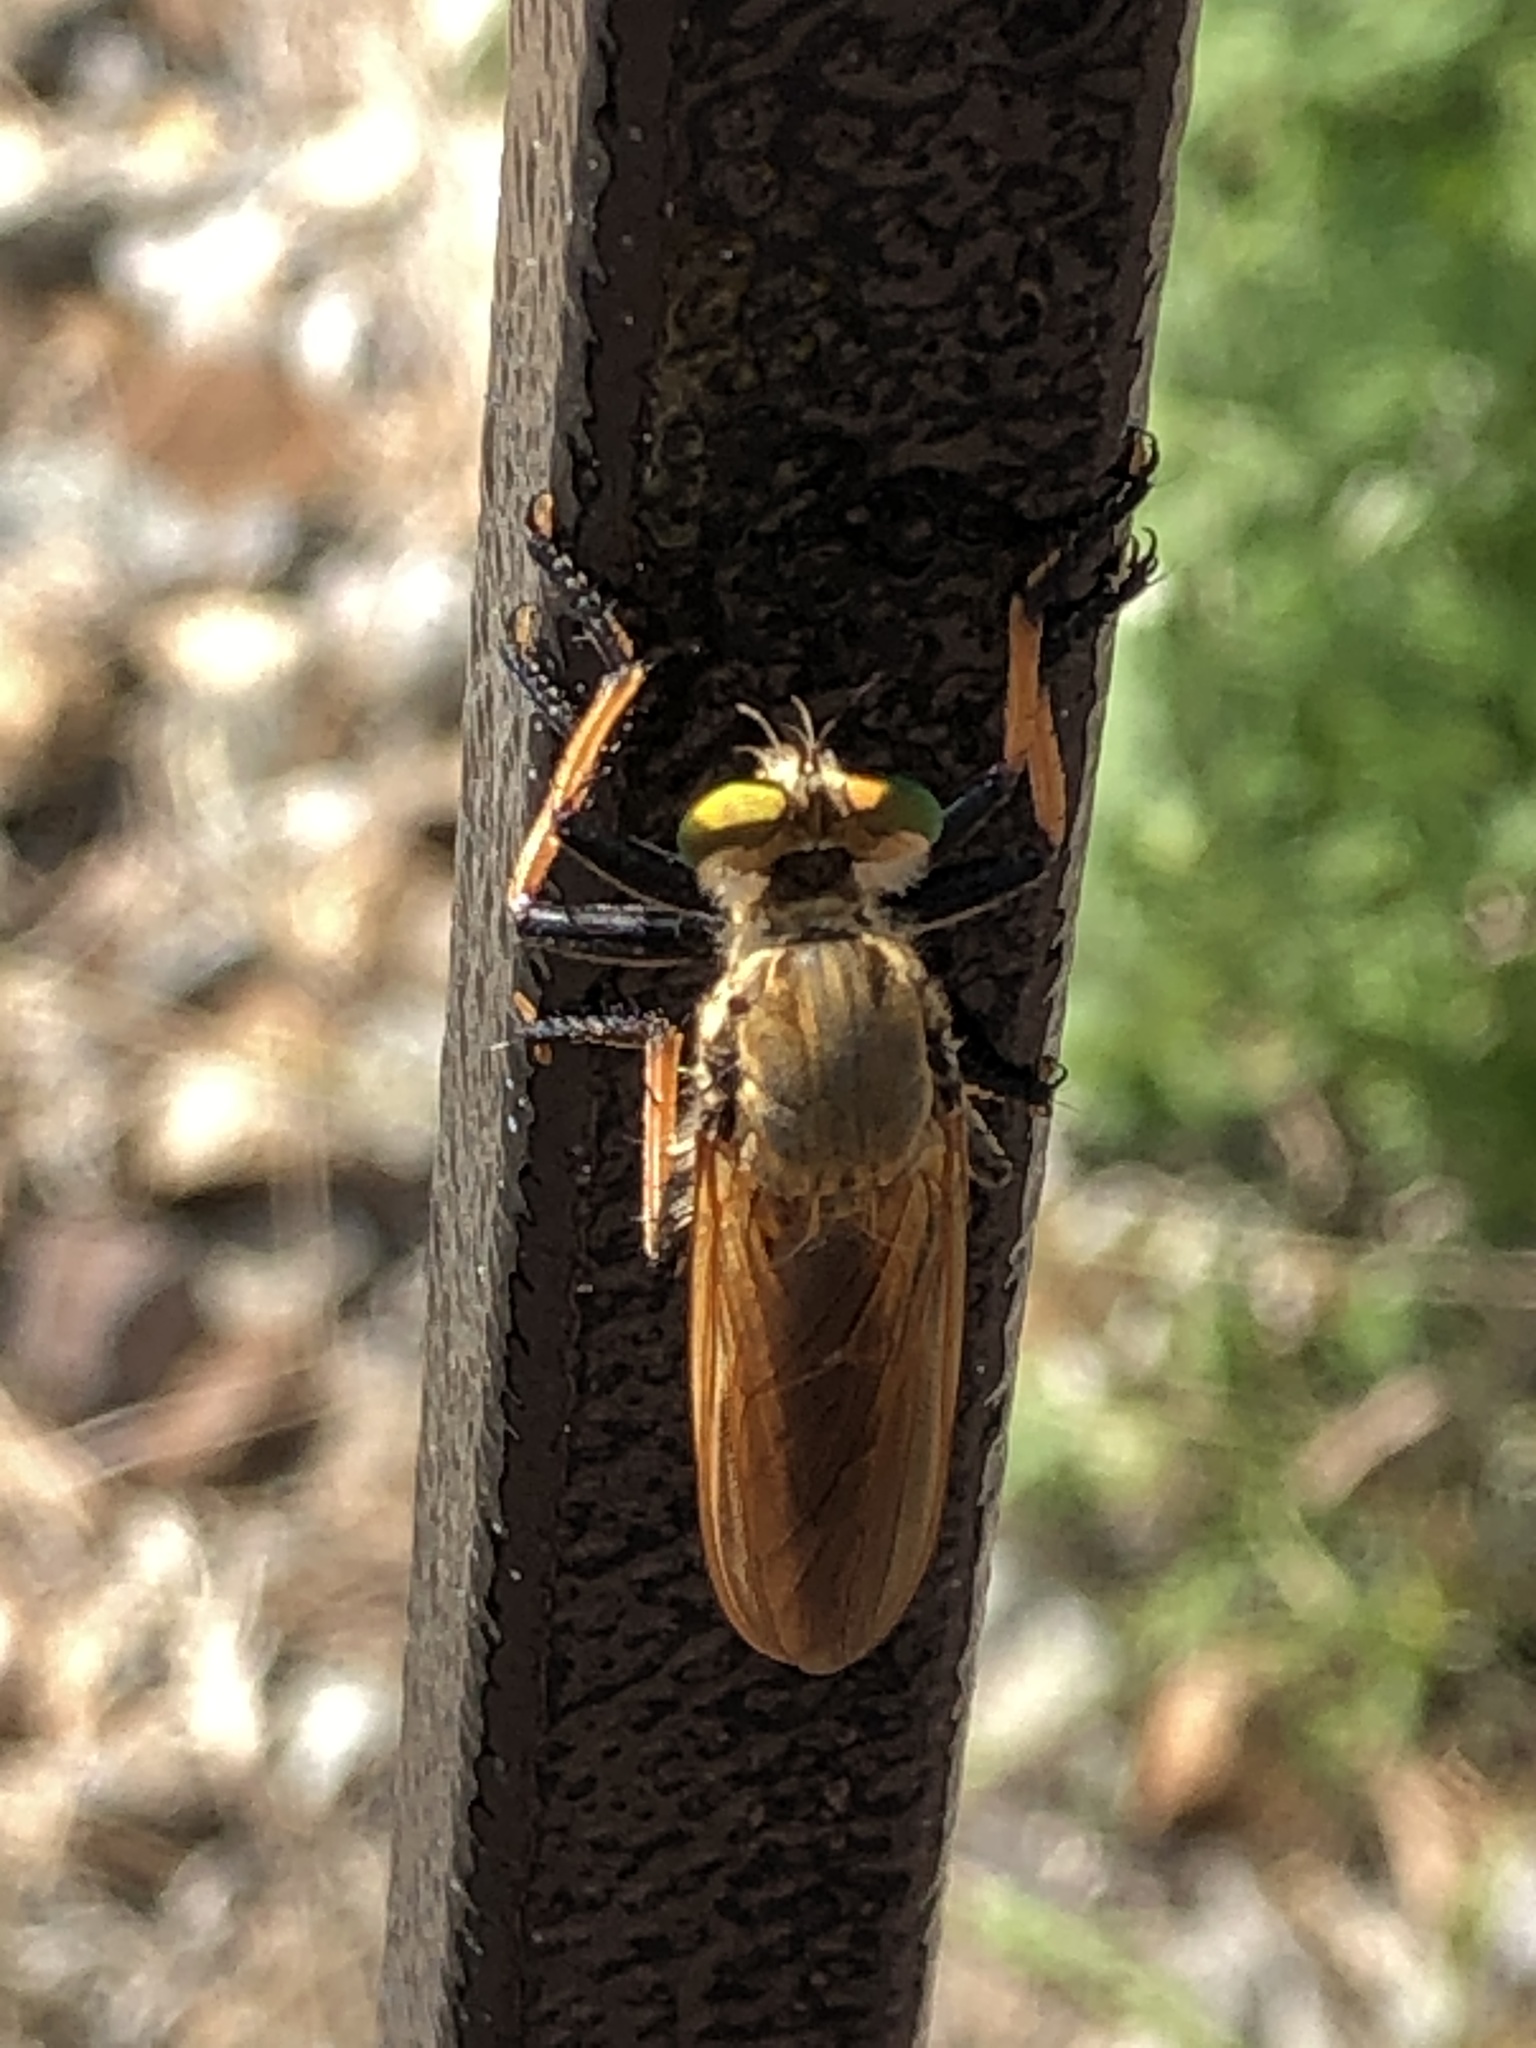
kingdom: Animalia
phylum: Arthropoda
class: Insecta
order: Diptera
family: Asilidae
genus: Cophinopoda
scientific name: Cophinopoda
